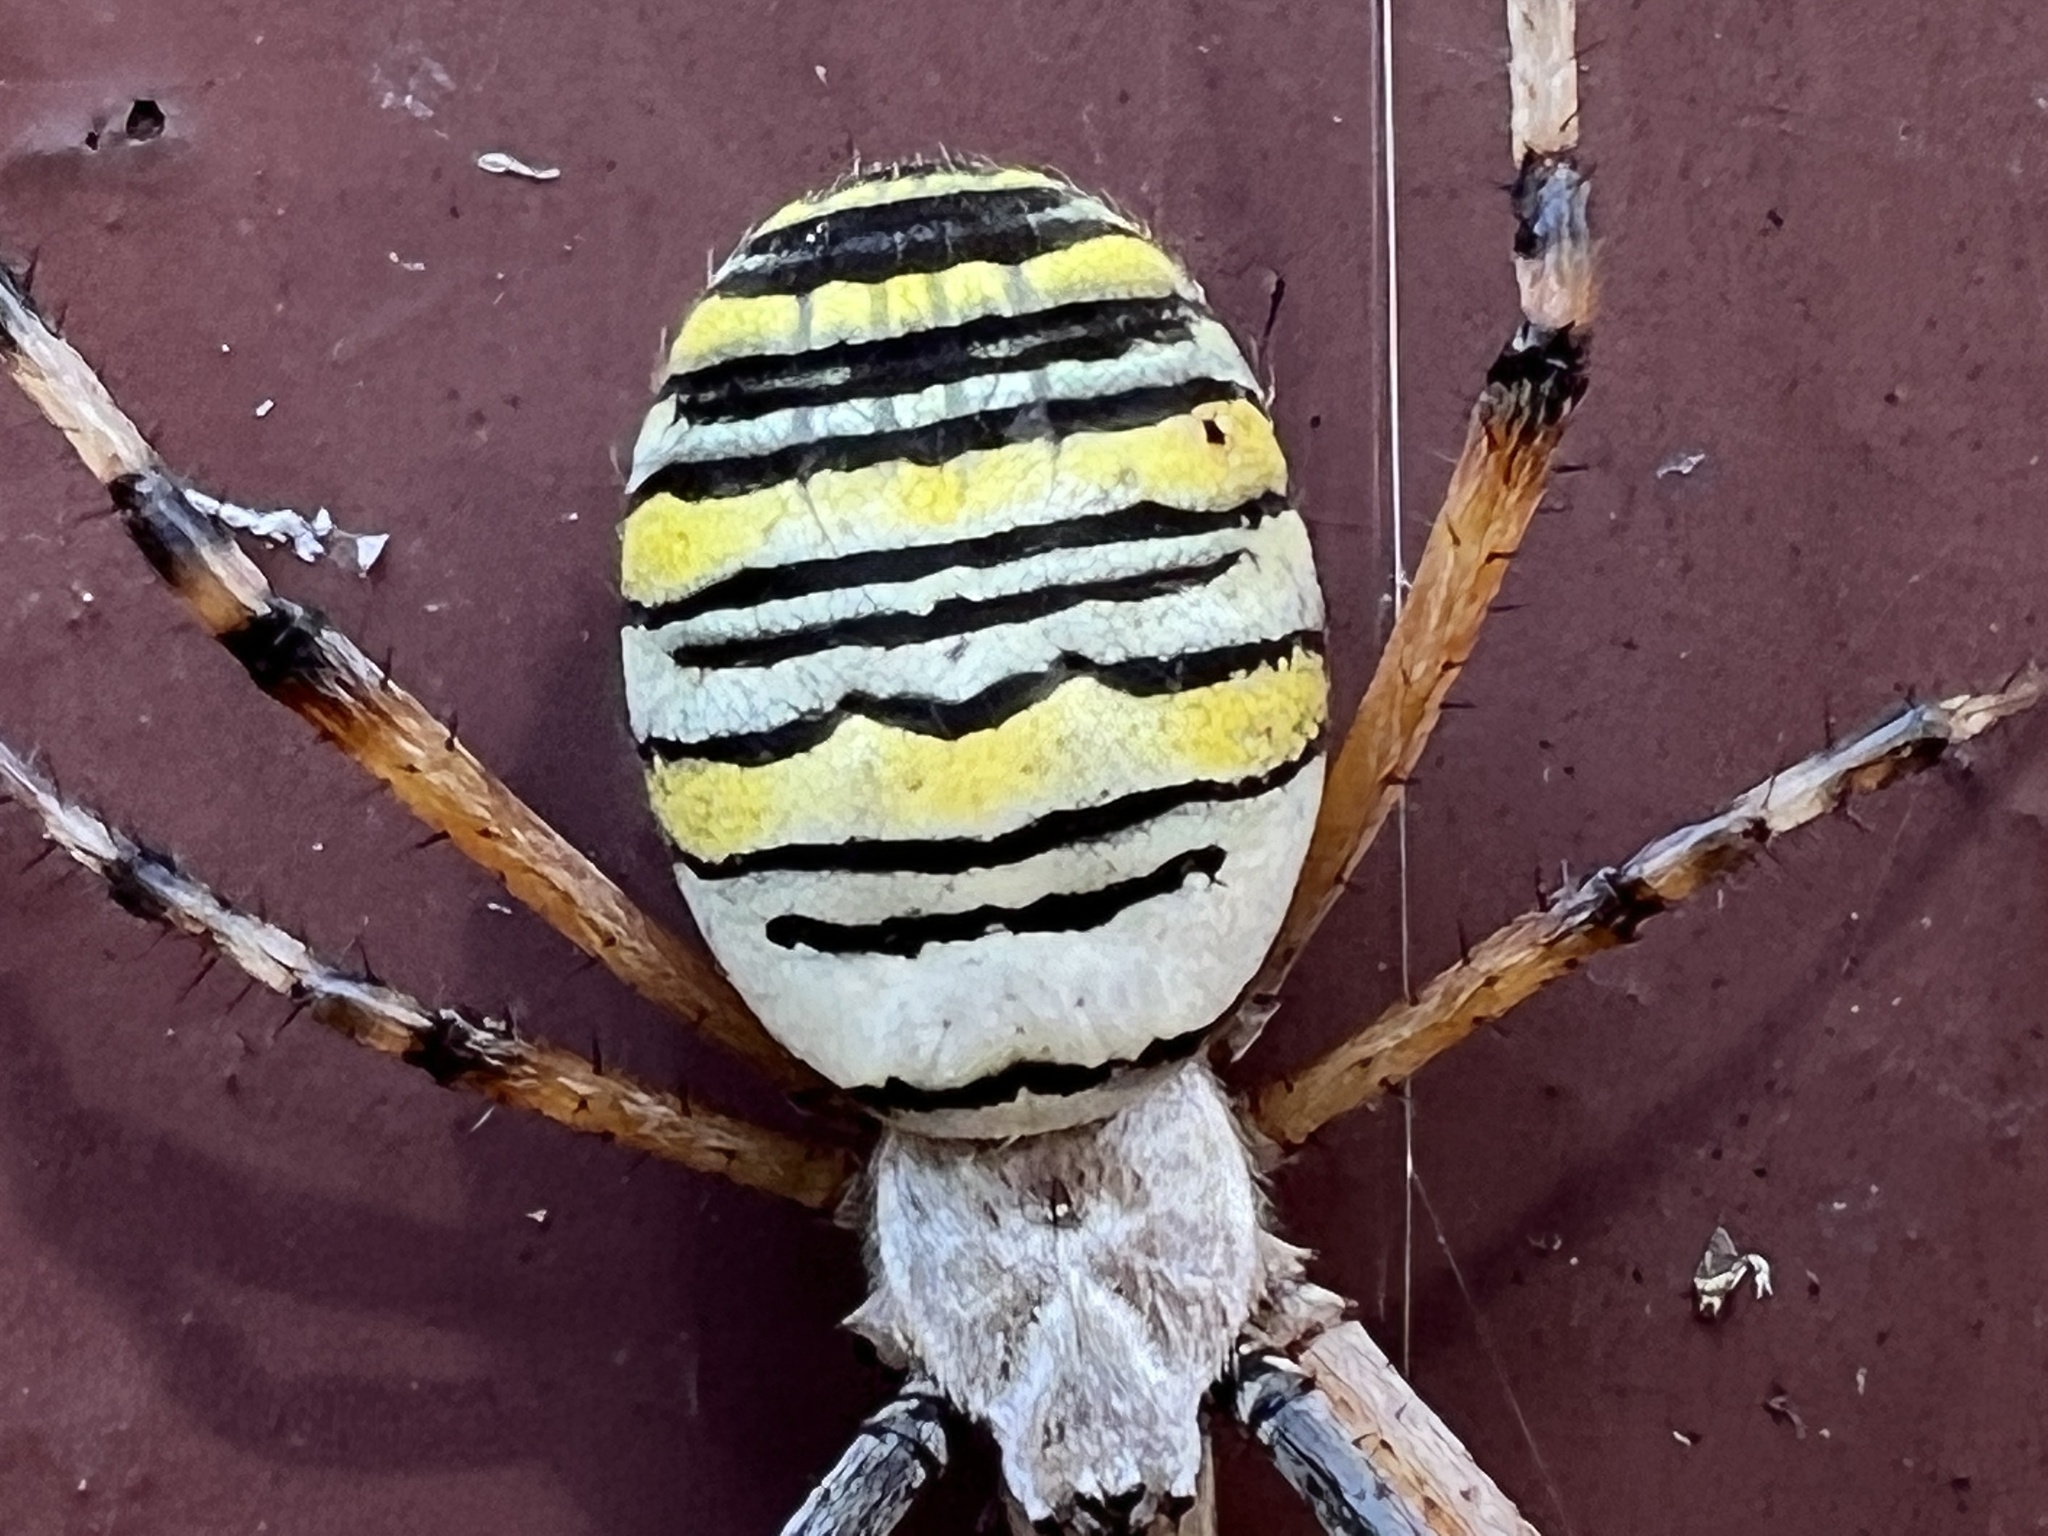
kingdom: Animalia
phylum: Arthropoda
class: Arachnida
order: Araneae
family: Araneidae
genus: Argiope
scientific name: Argiope bruennichi
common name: Wasp spider
